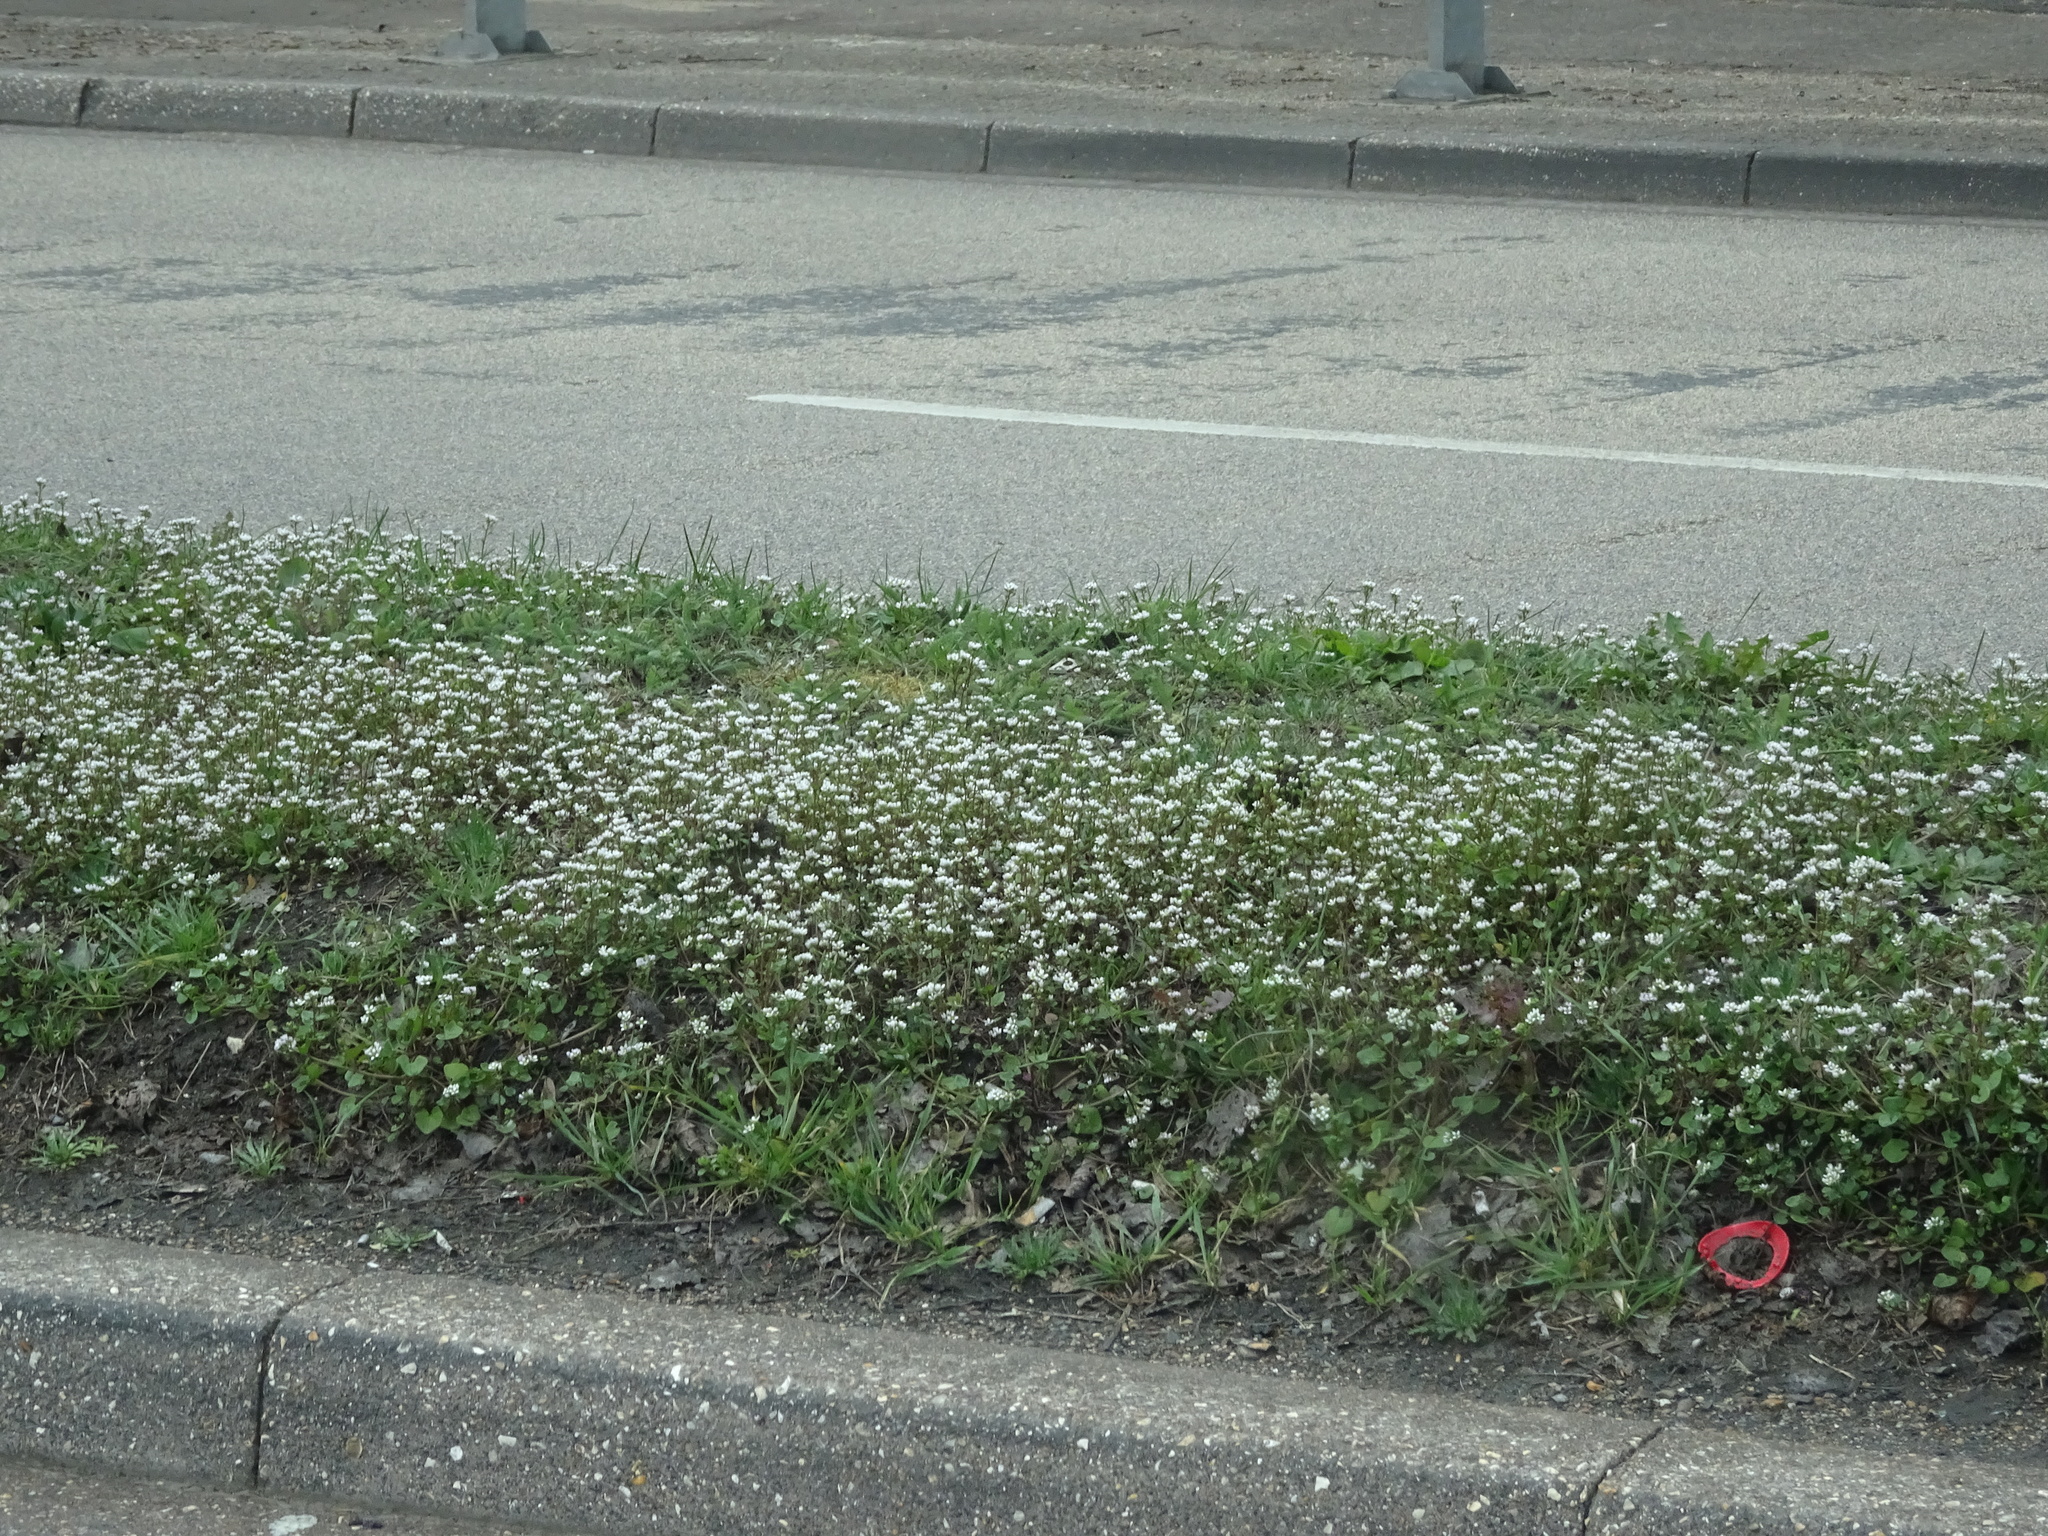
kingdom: Plantae
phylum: Tracheophyta
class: Magnoliopsida
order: Brassicales
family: Brassicaceae
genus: Cochlearia
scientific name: Cochlearia danica
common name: Early scurvygrass
